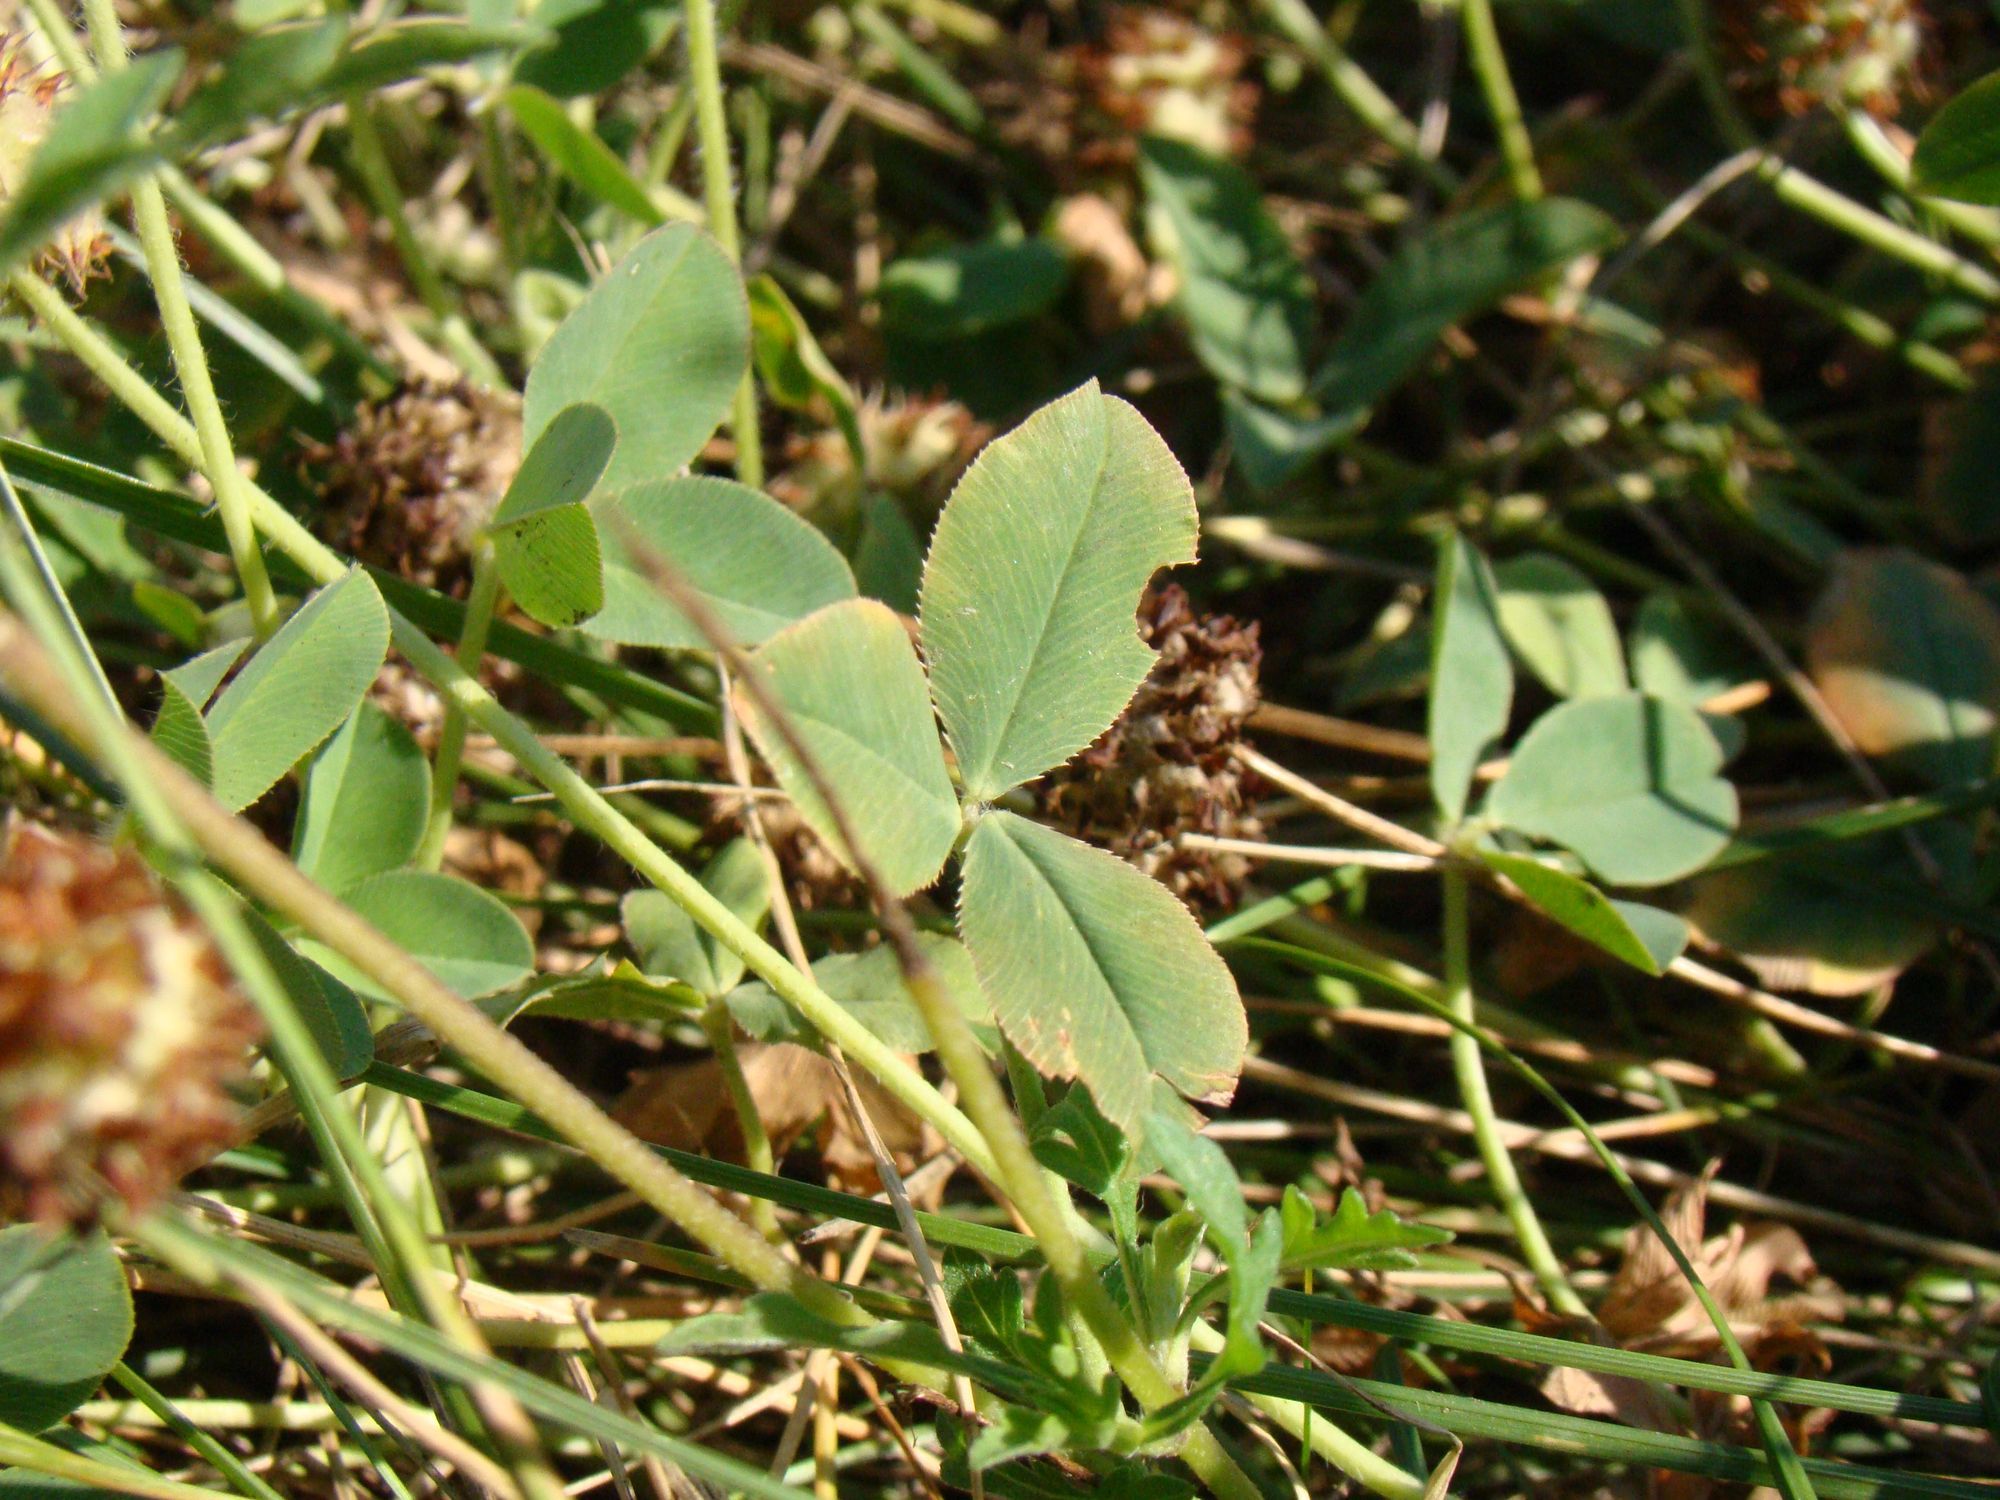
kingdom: Plantae
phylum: Tracheophyta
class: Magnoliopsida
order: Fabales
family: Fabaceae
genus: Trifolium
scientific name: Trifolium fragiferum
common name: Strawberry clover
